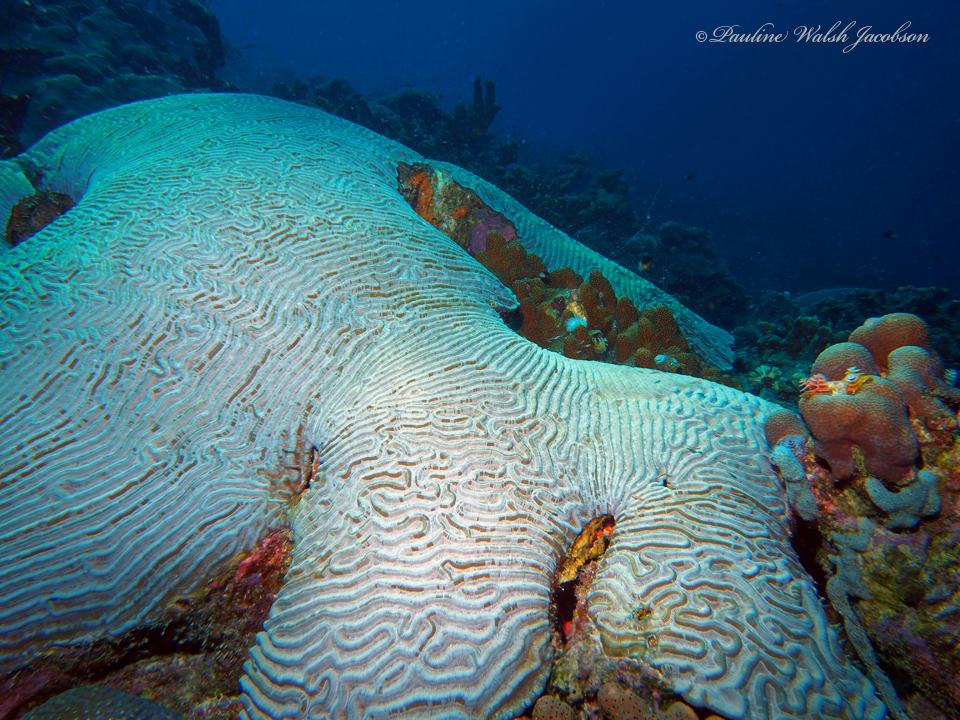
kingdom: Animalia
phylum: Cnidaria
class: Anthozoa
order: Scleractinia
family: Faviidae
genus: Pseudodiploria
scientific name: Pseudodiploria strigosa
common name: Symmetrical brain coral
